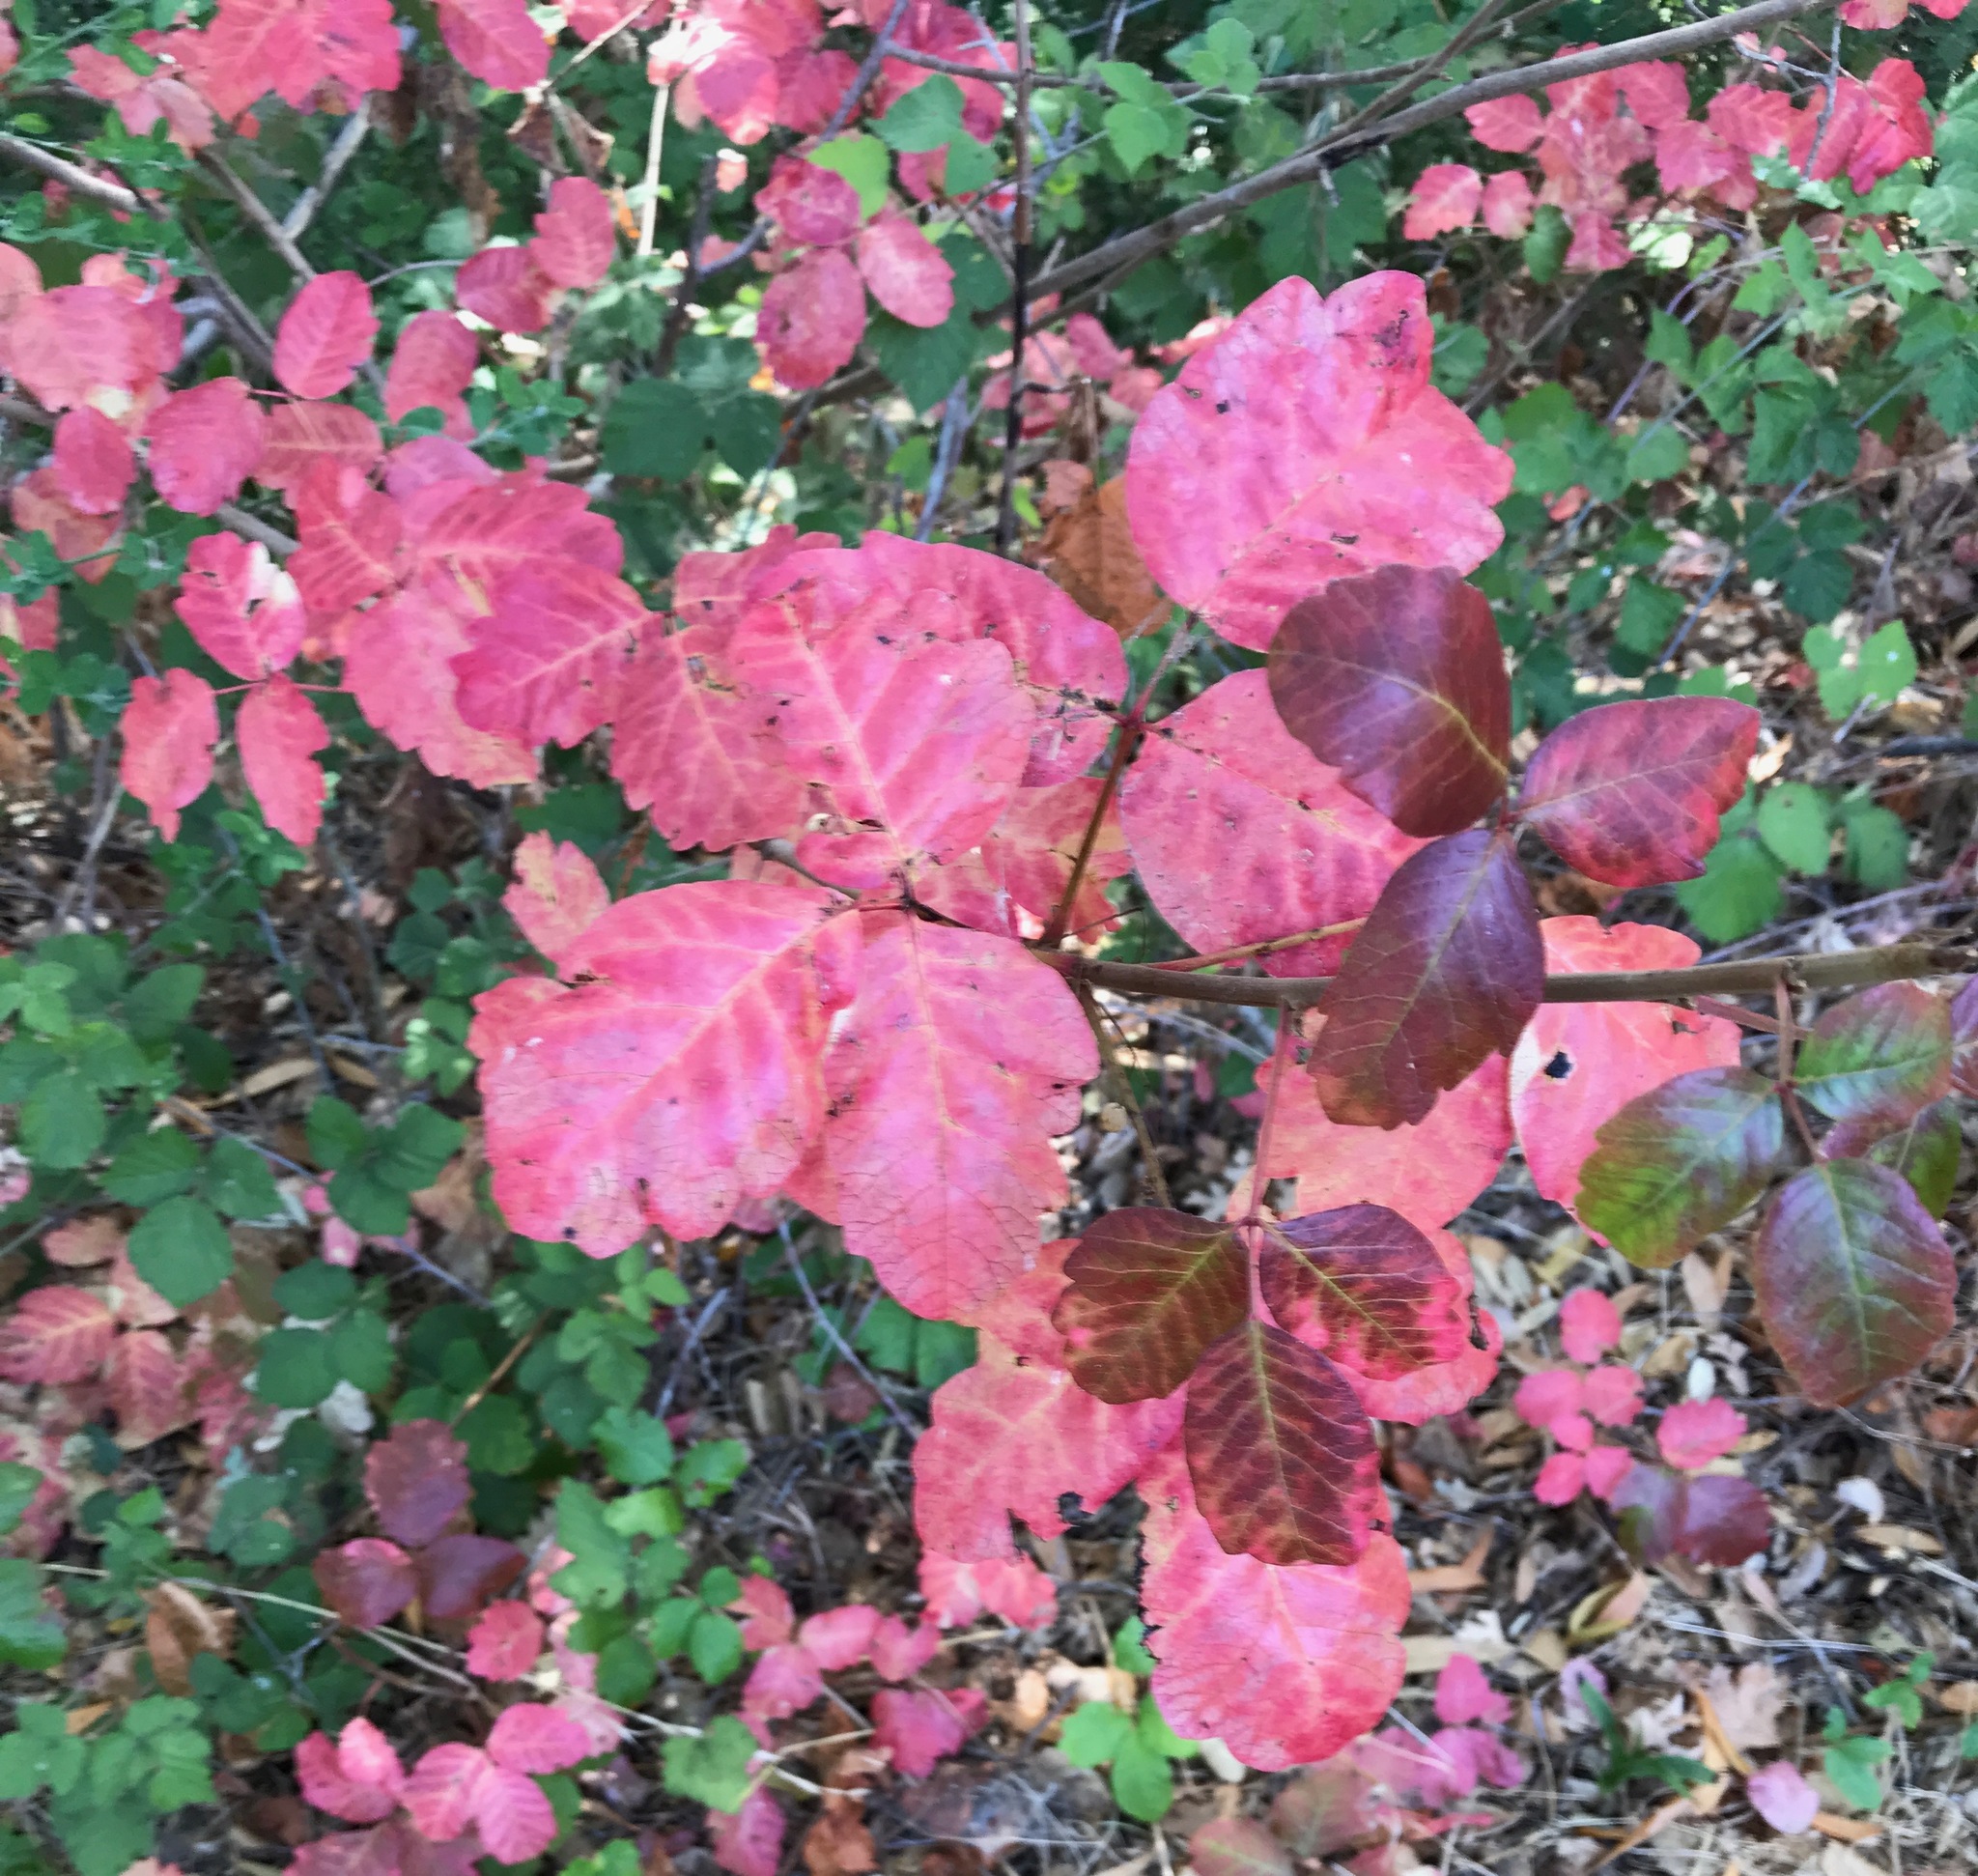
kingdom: Plantae
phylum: Tracheophyta
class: Magnoliopsida
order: Sapindales
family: Anacardiaceae
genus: Toxicodendron
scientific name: Toxicodendron diversilobum
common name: Pacific poison-oak
